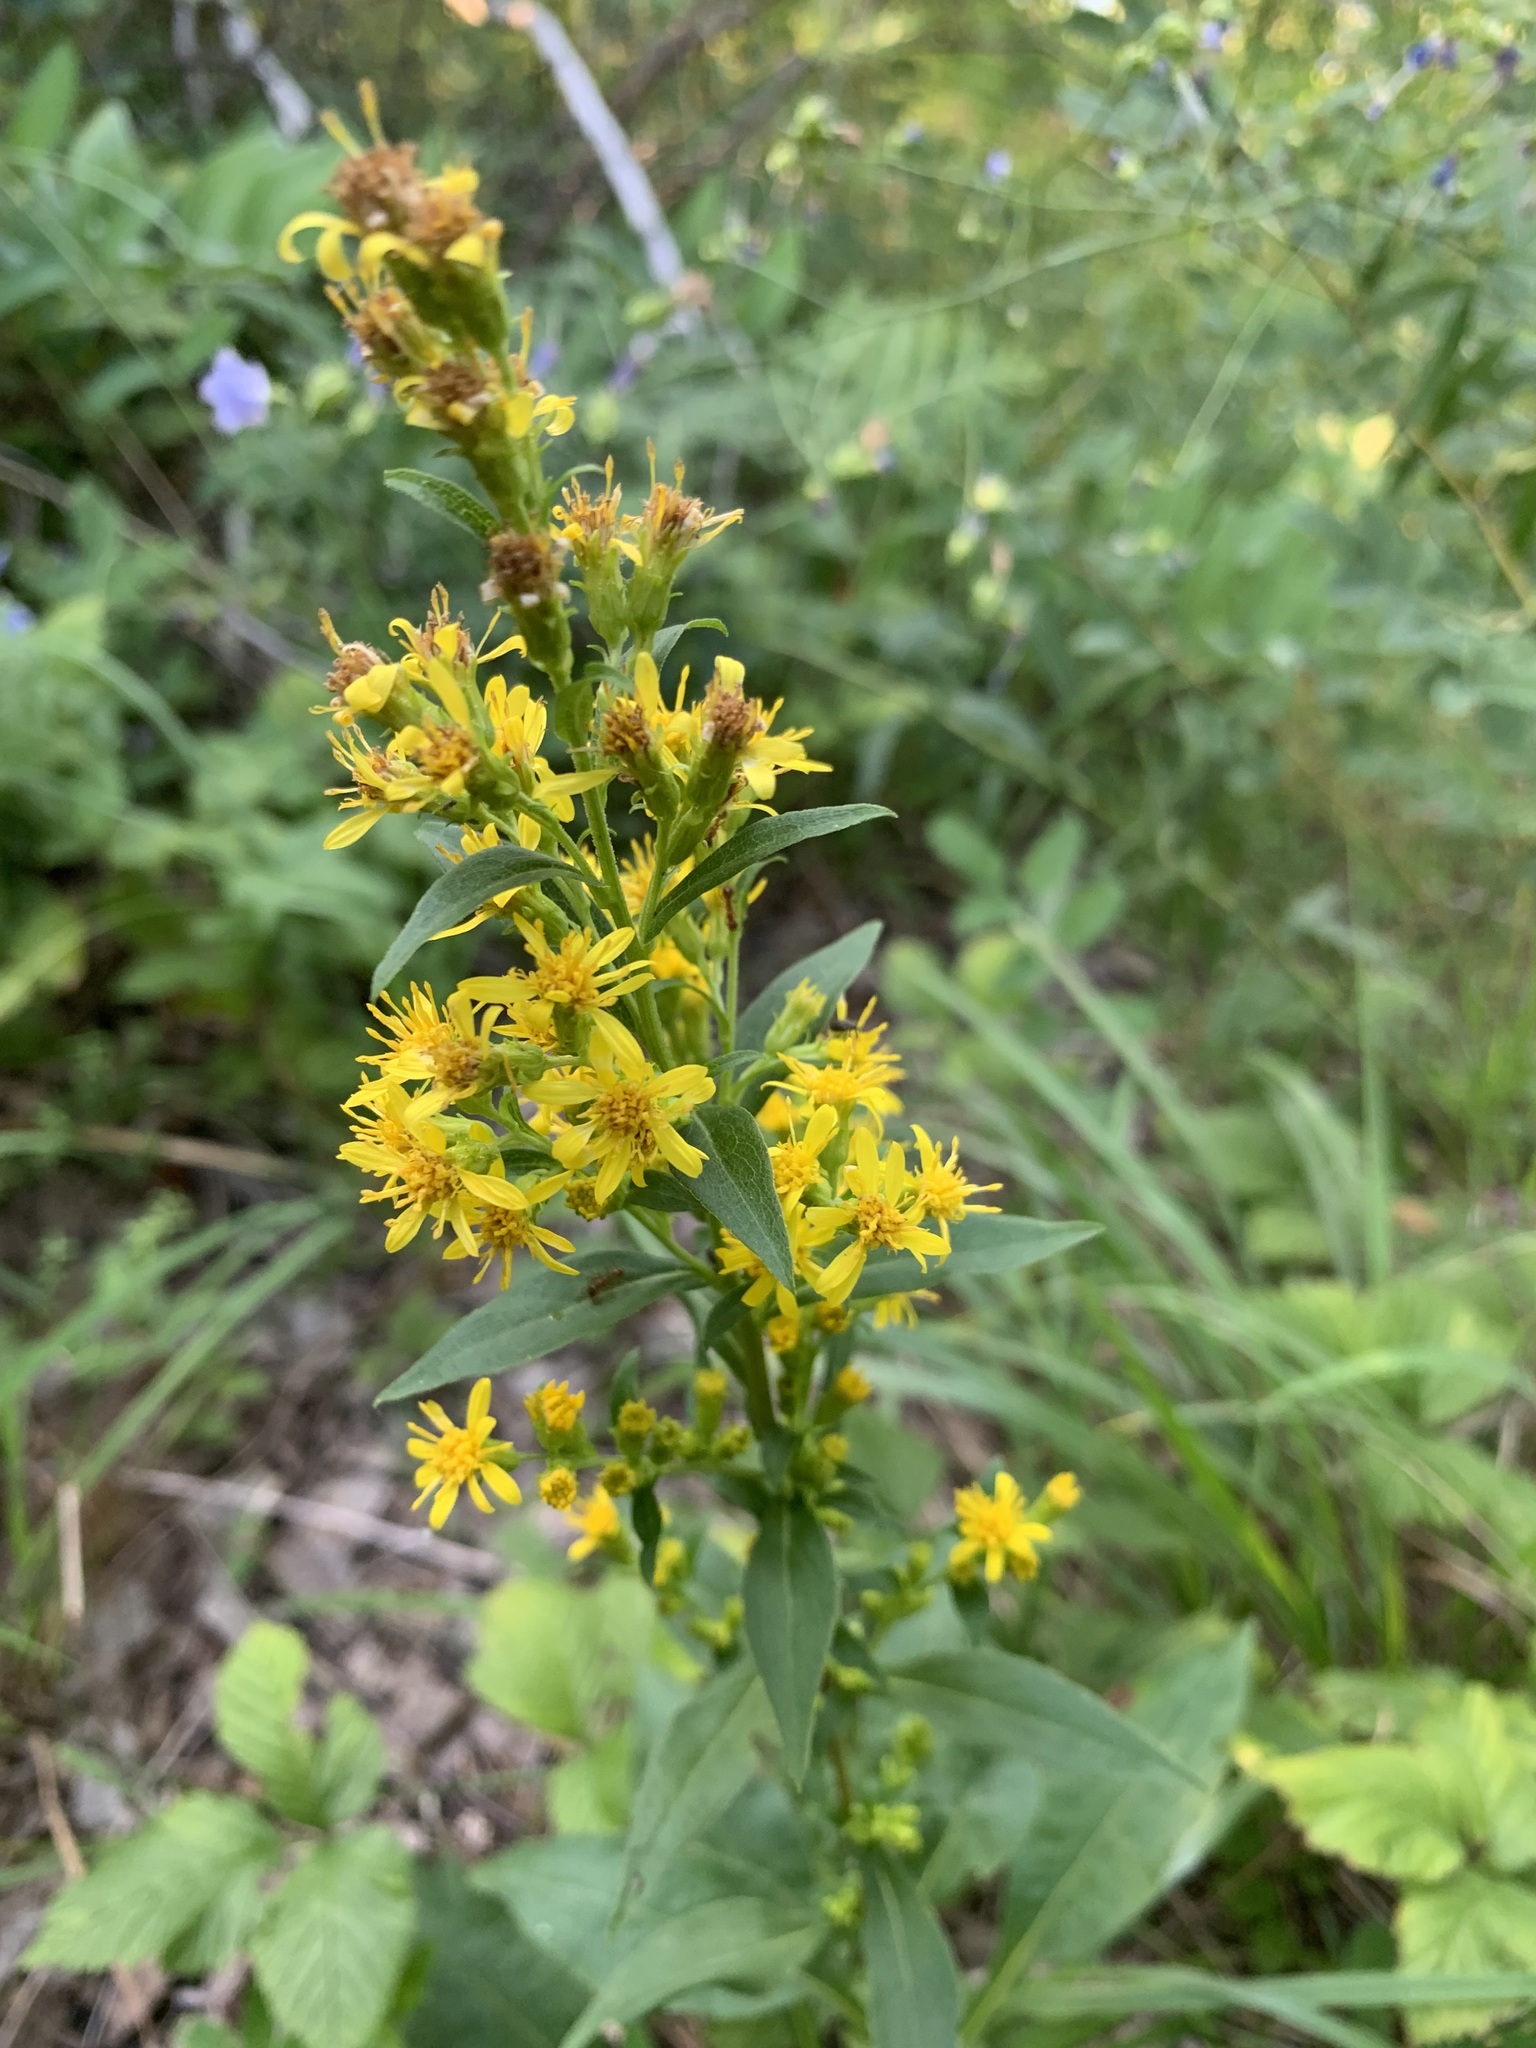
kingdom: Plantae
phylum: Tracheophyta
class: Magnoliopsida
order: Asterales
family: Asteraceae
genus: Solidago
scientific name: Solidago virgaurea
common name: Goldenrod
